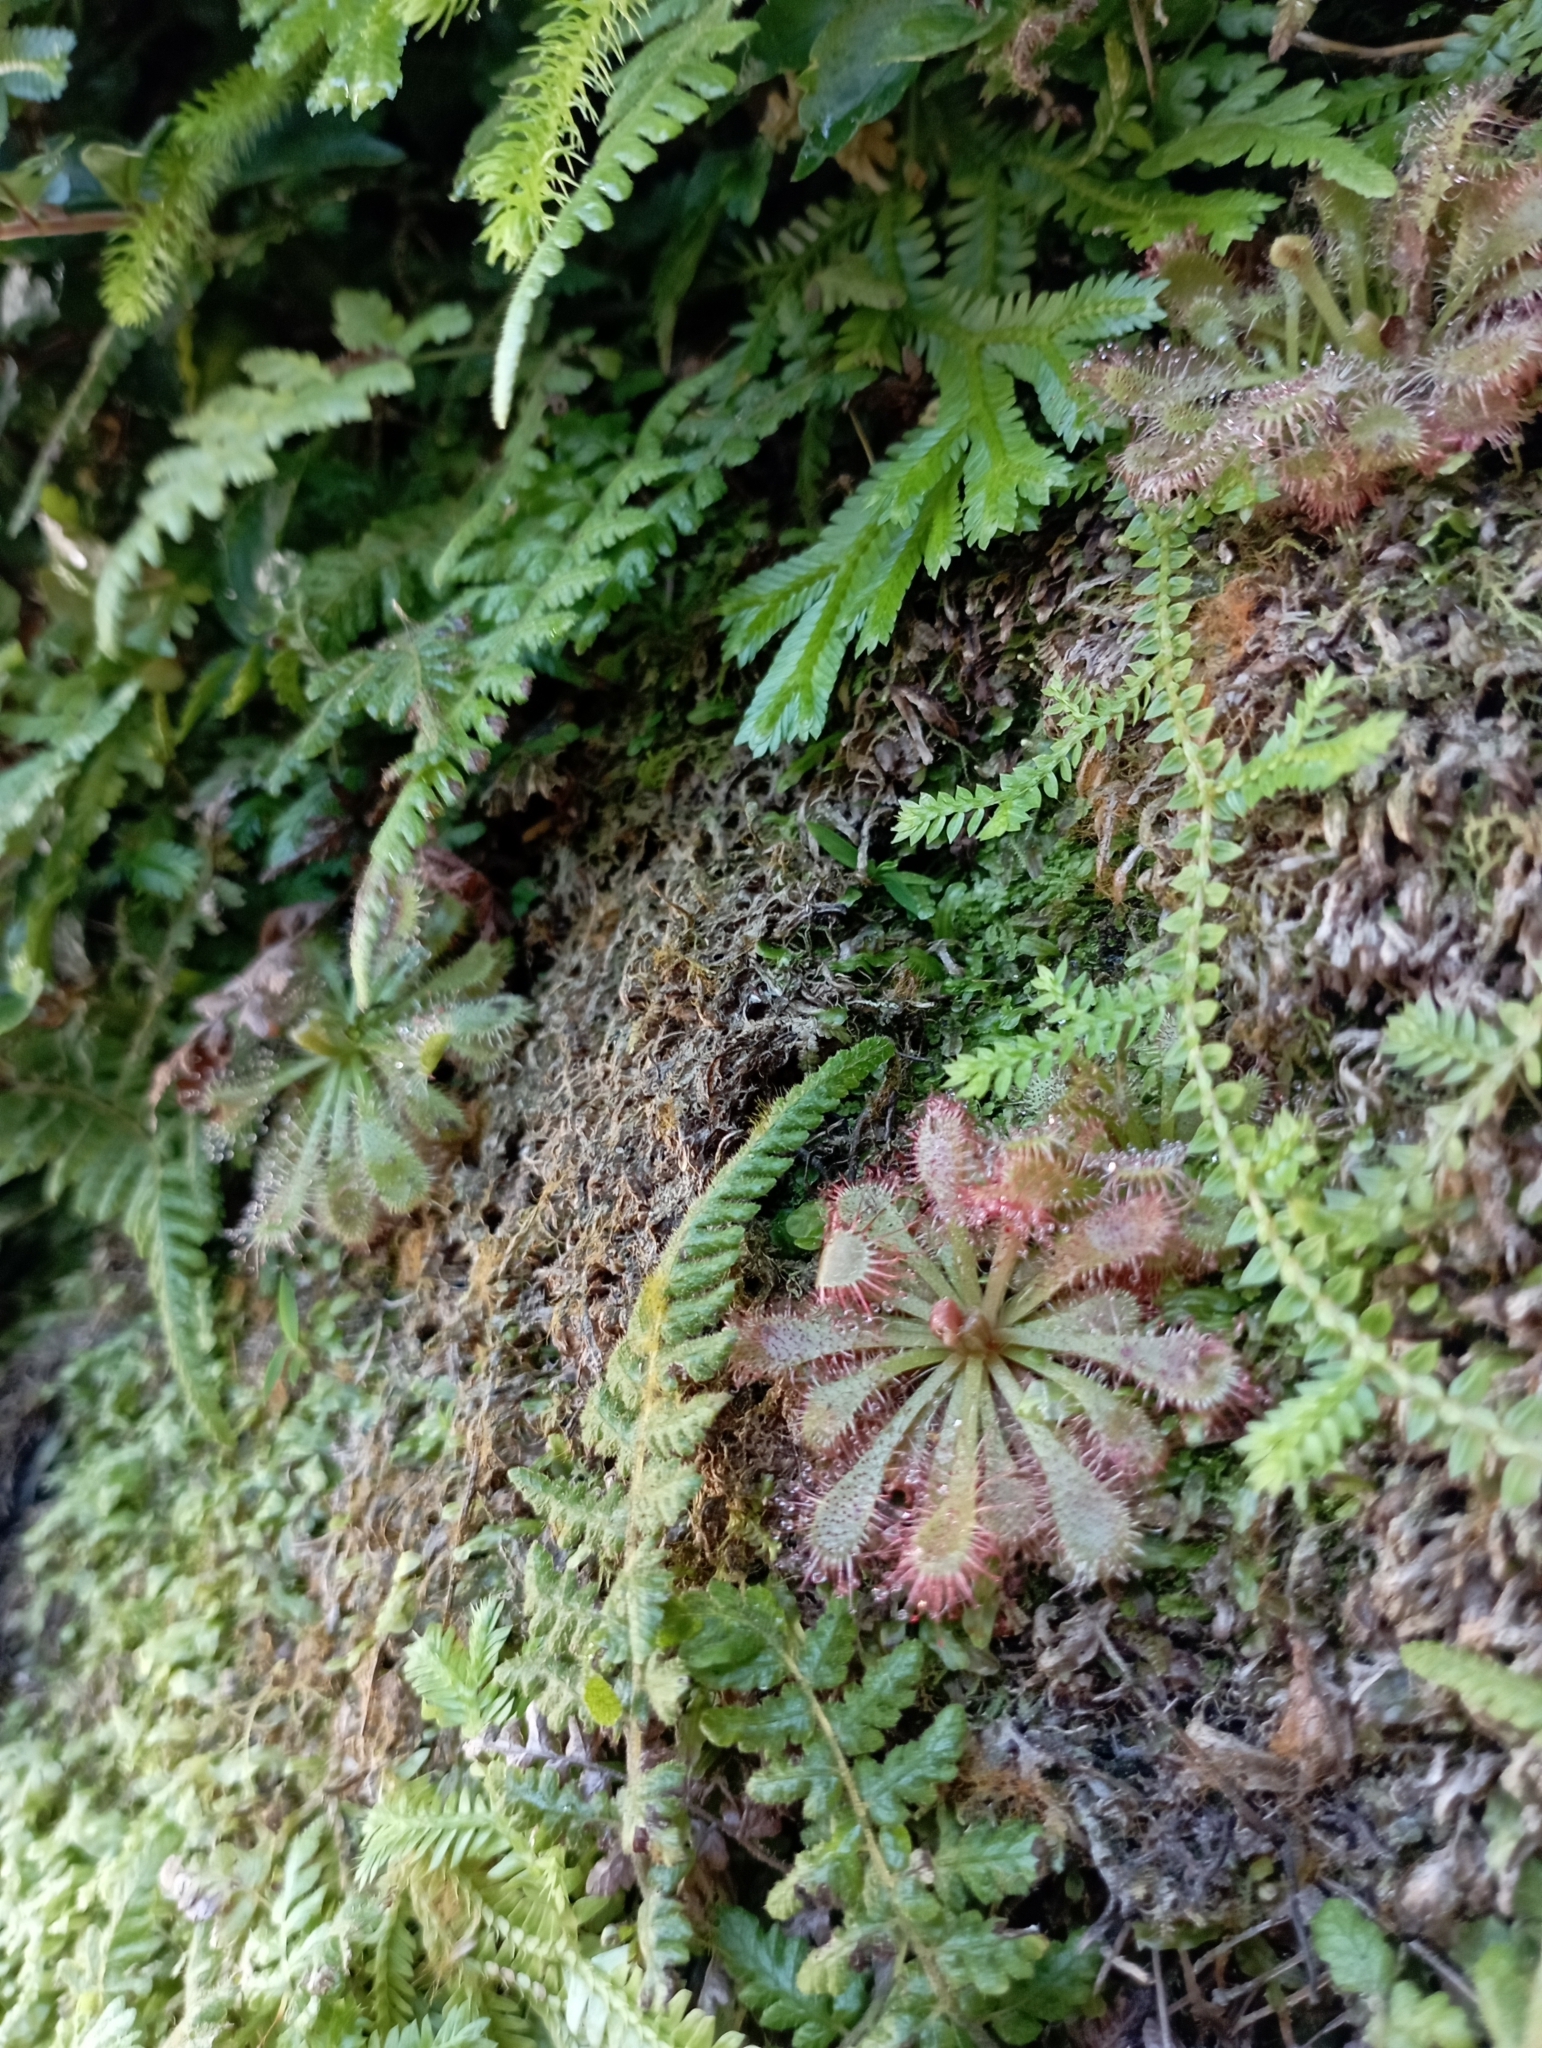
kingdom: Plantae
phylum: Tracheophyta
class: Magnoliopsida
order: Caryophyllales
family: Droseraceae
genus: Drosera
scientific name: Drosera spatulata
